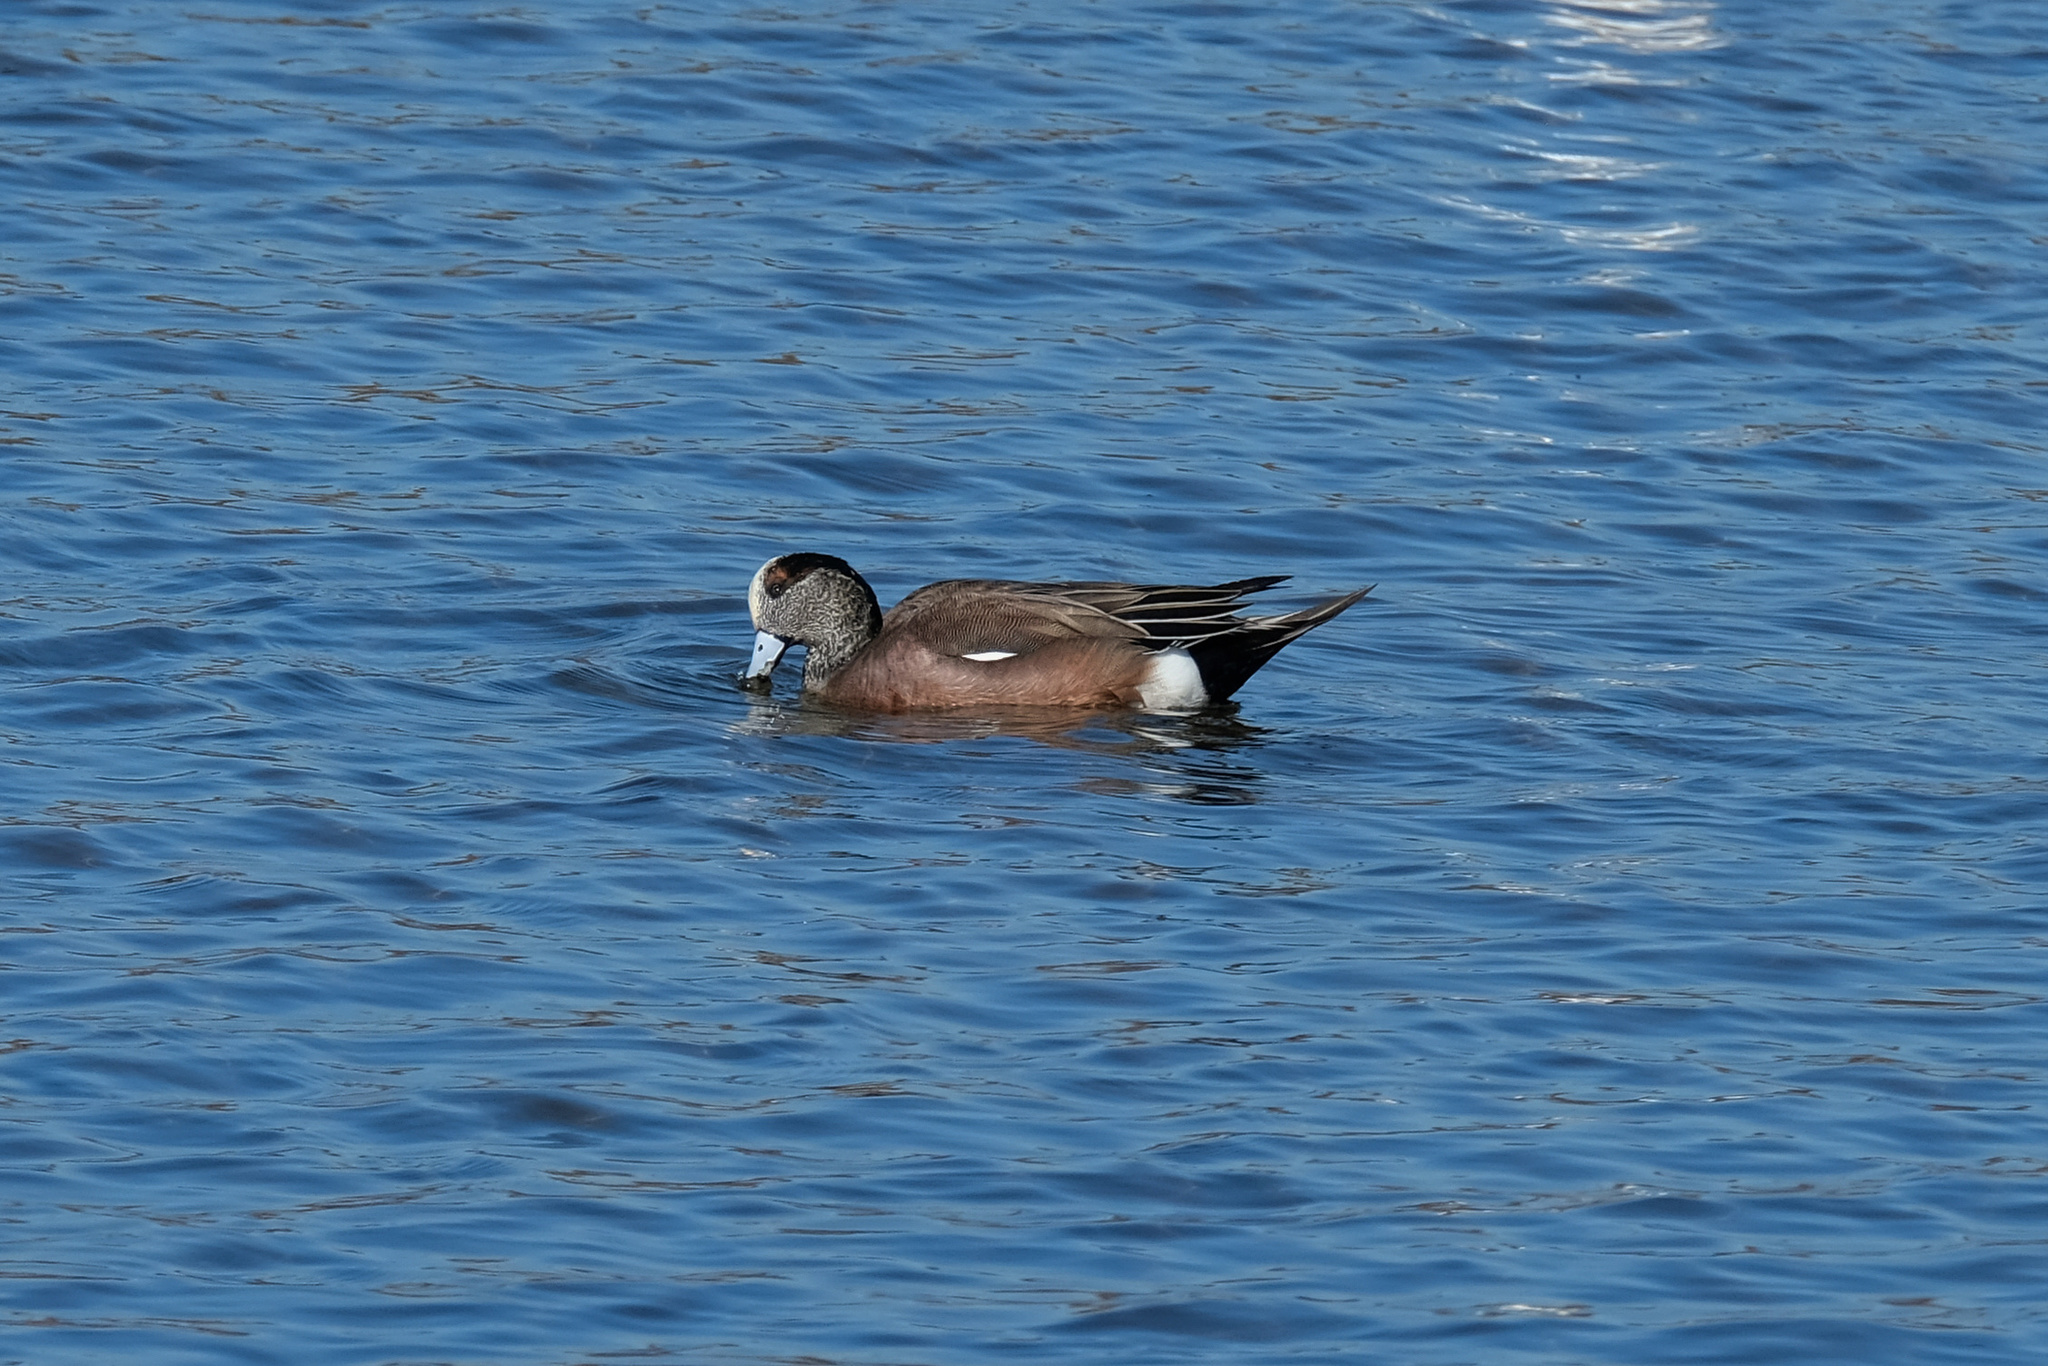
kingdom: Animalia
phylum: Chordata
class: Aves
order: Anseriformes
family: Anatidae
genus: Mareca
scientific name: Mareca americana
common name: American wigeon
